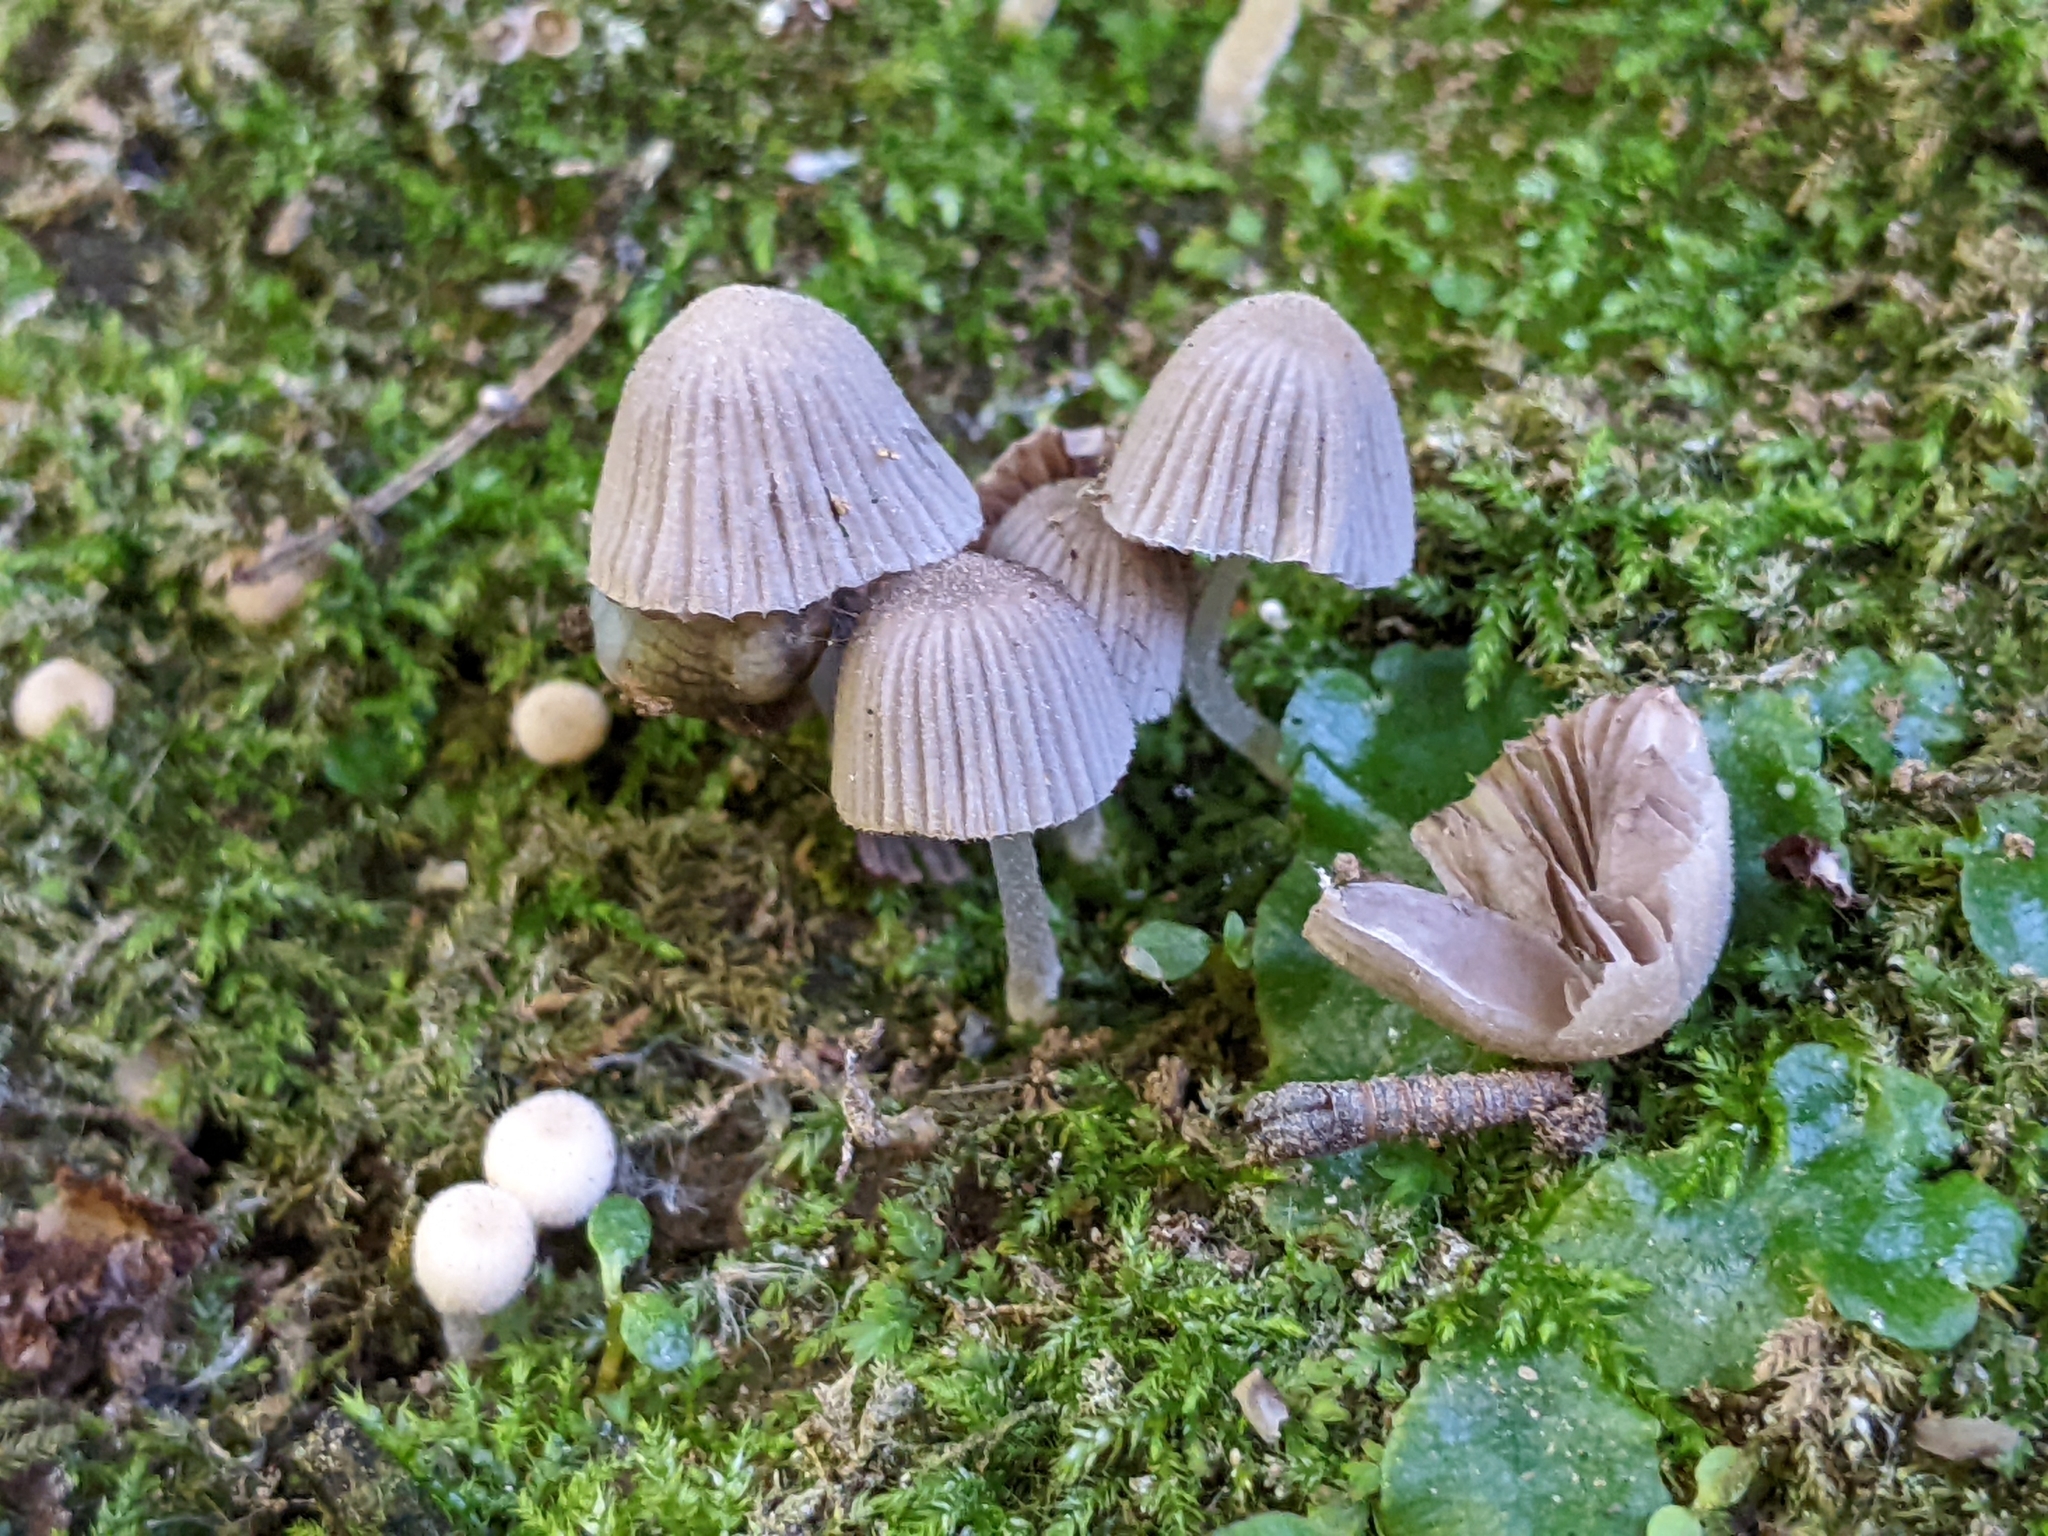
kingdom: Fungi
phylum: Basidiomycota
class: Agaricomycetes
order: Agaricales
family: Psathyrellaceae
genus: Coprinellus
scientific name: Coprinellus disseminatus
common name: Fairies' bonnets
